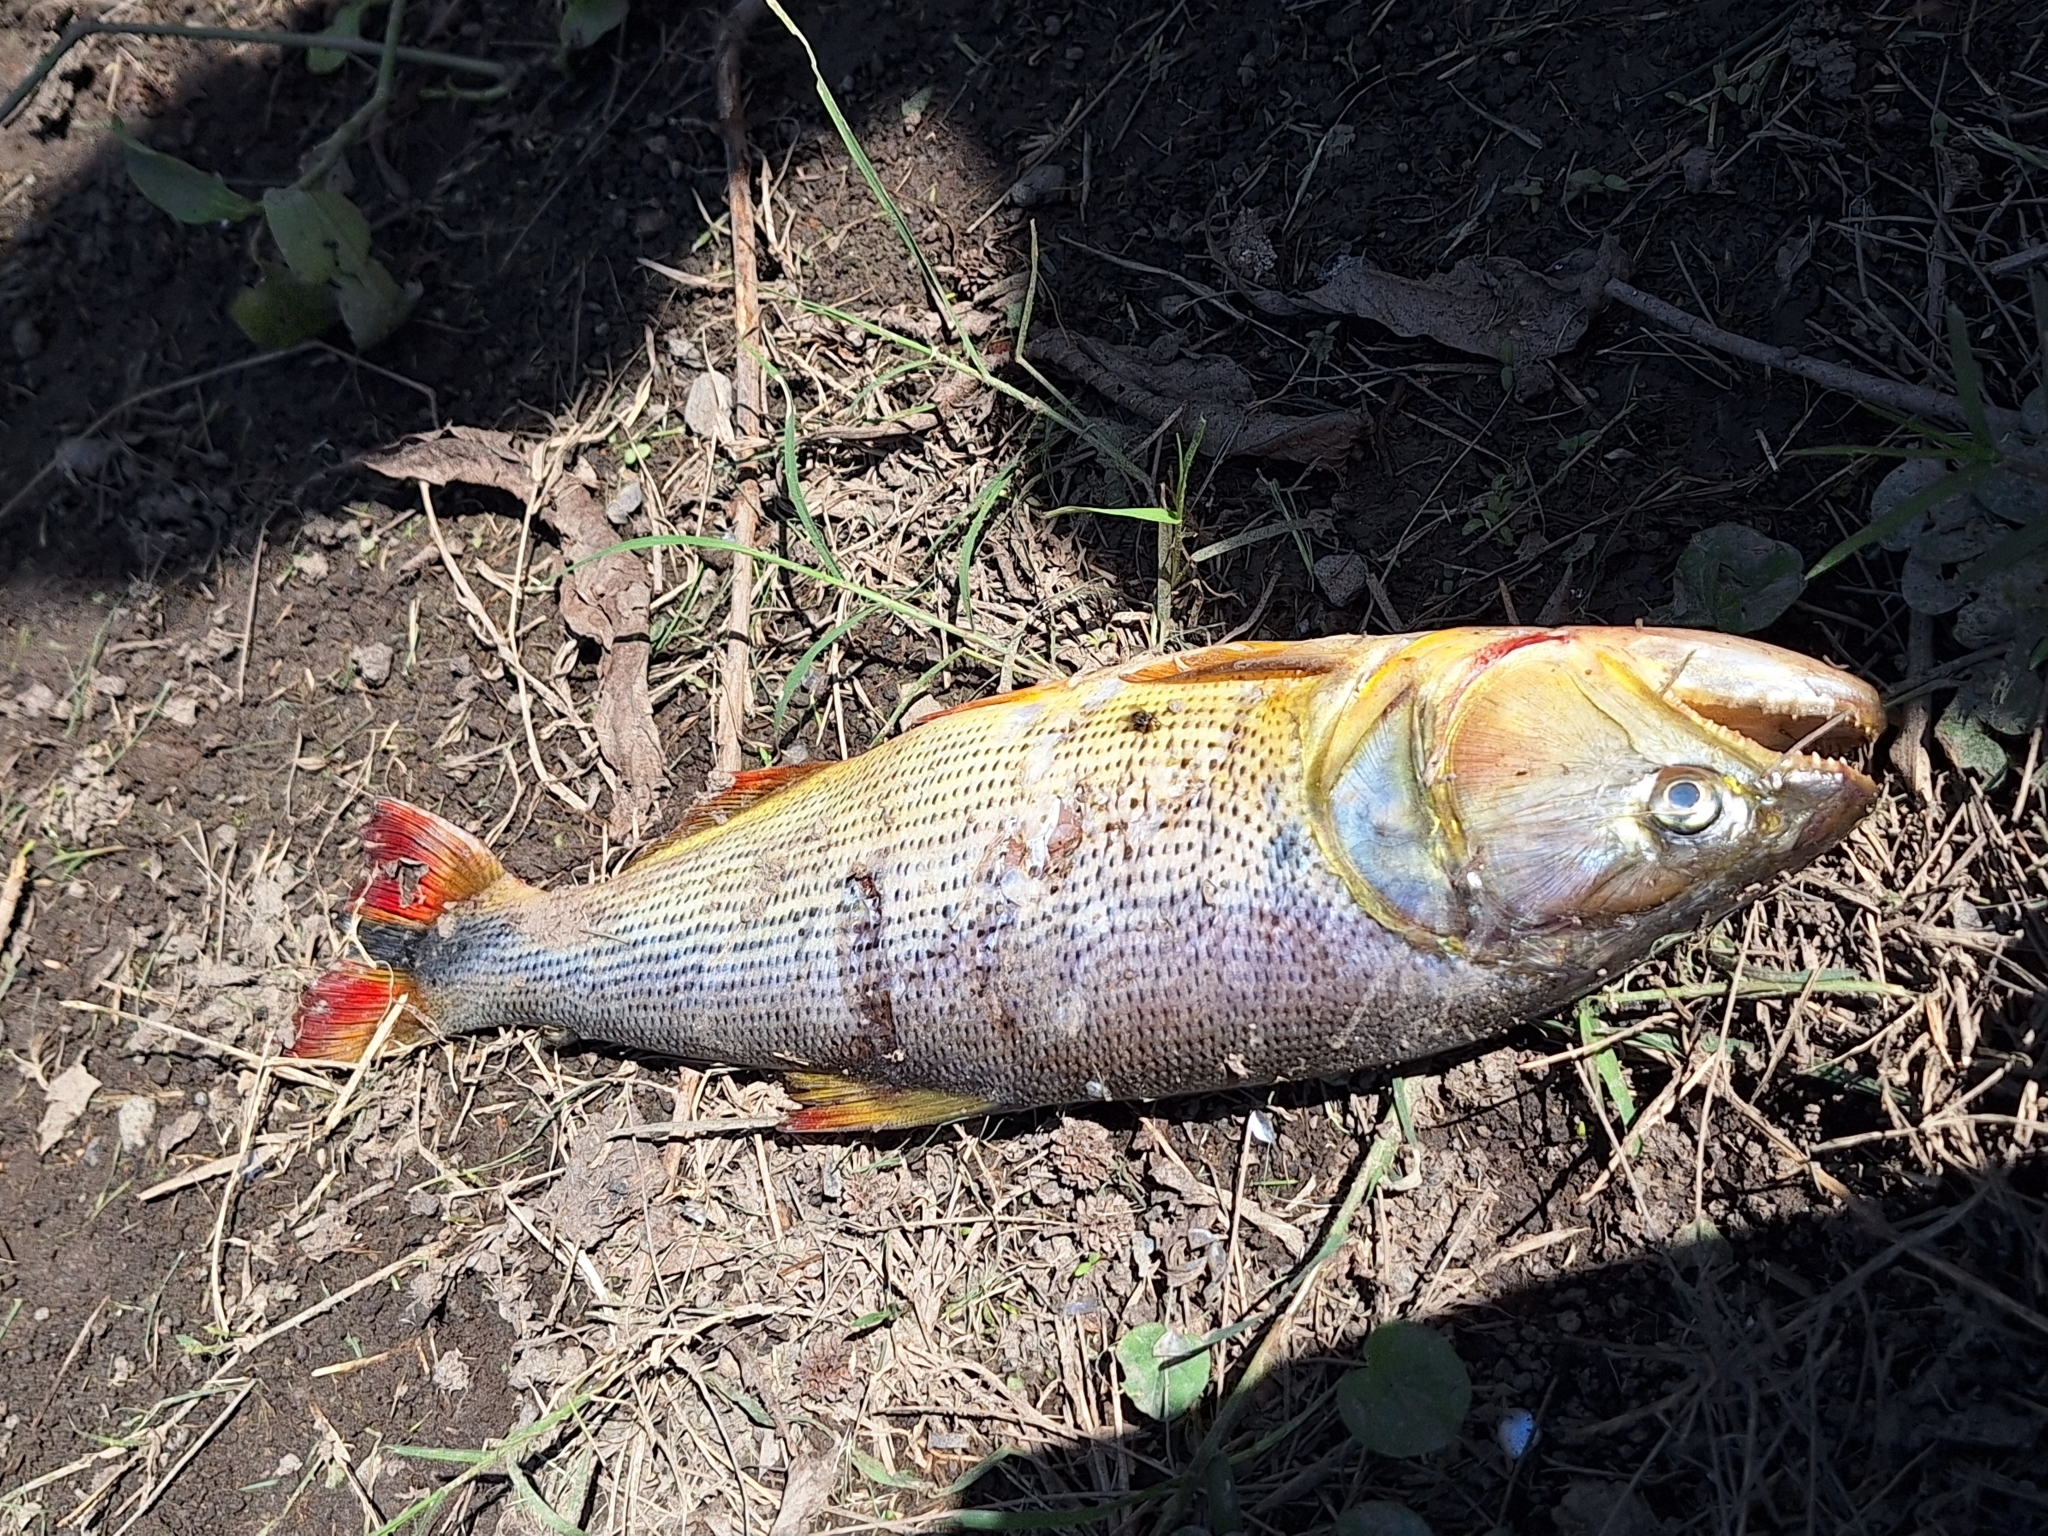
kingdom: Animalia
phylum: Chordata
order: Characiformes
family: Bryconidae
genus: Salminus
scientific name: Salminus brasiliensis
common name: Dorado
